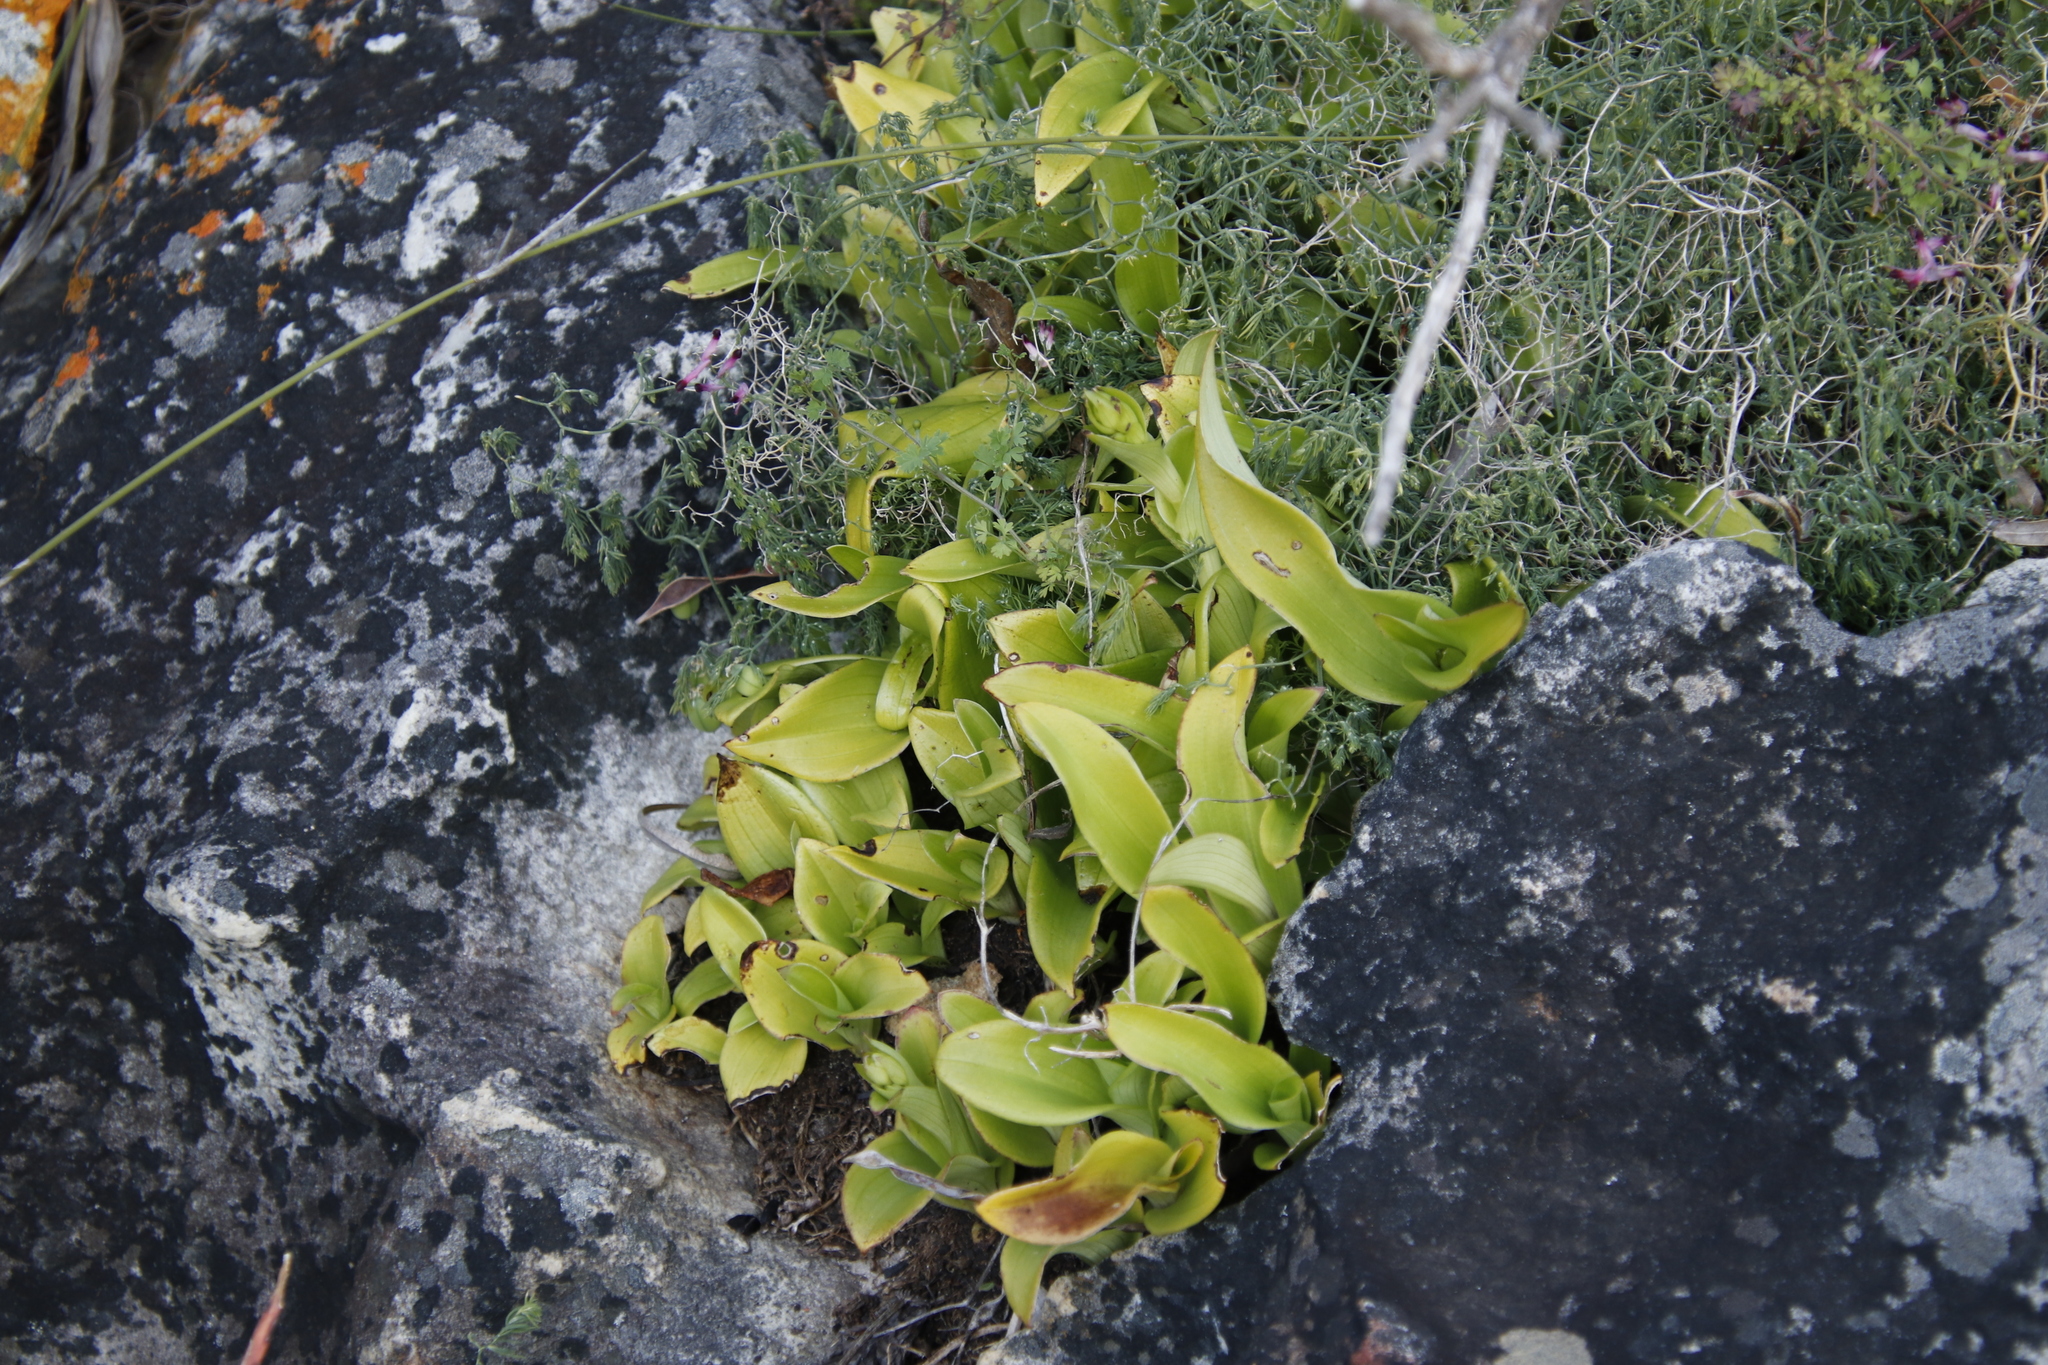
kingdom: Plantae
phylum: Tracheophyta
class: Liliopsida
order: Asparagales
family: Orchidaceae
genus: Satyrium
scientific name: Satyrium odorum
